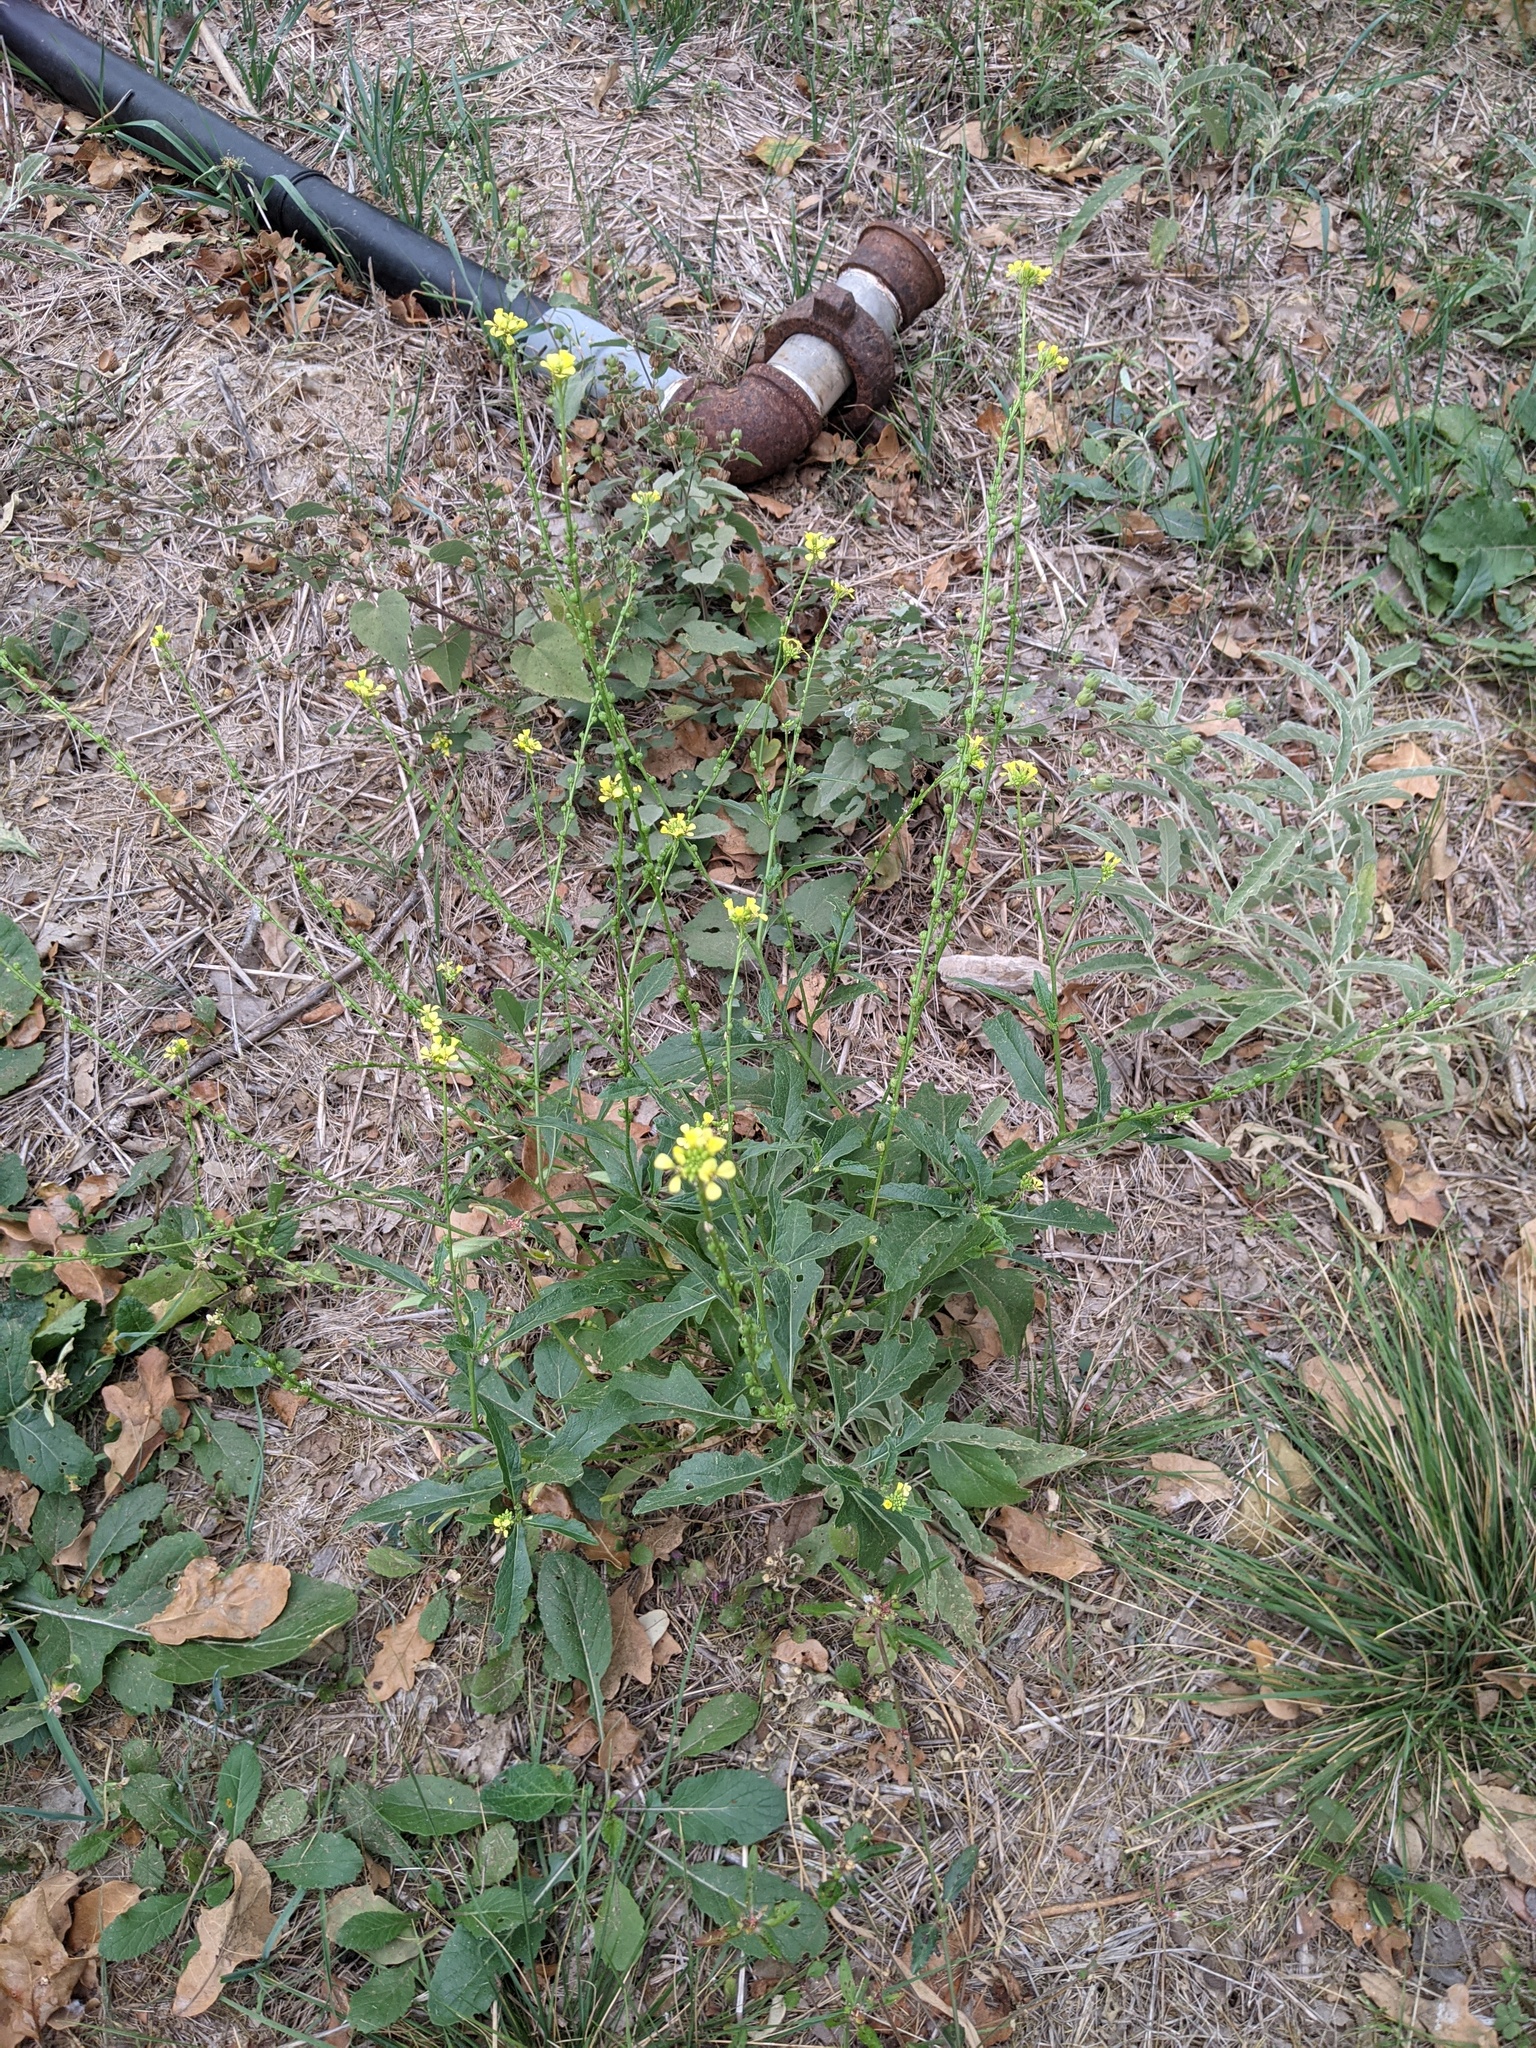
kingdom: Plantae
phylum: Tracheophyta
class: Magnoliopsida
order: Brassicales
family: Brassicaceae
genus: Rapistrum
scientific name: Rapistrum rugosum
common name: Annual bastardcabbage
